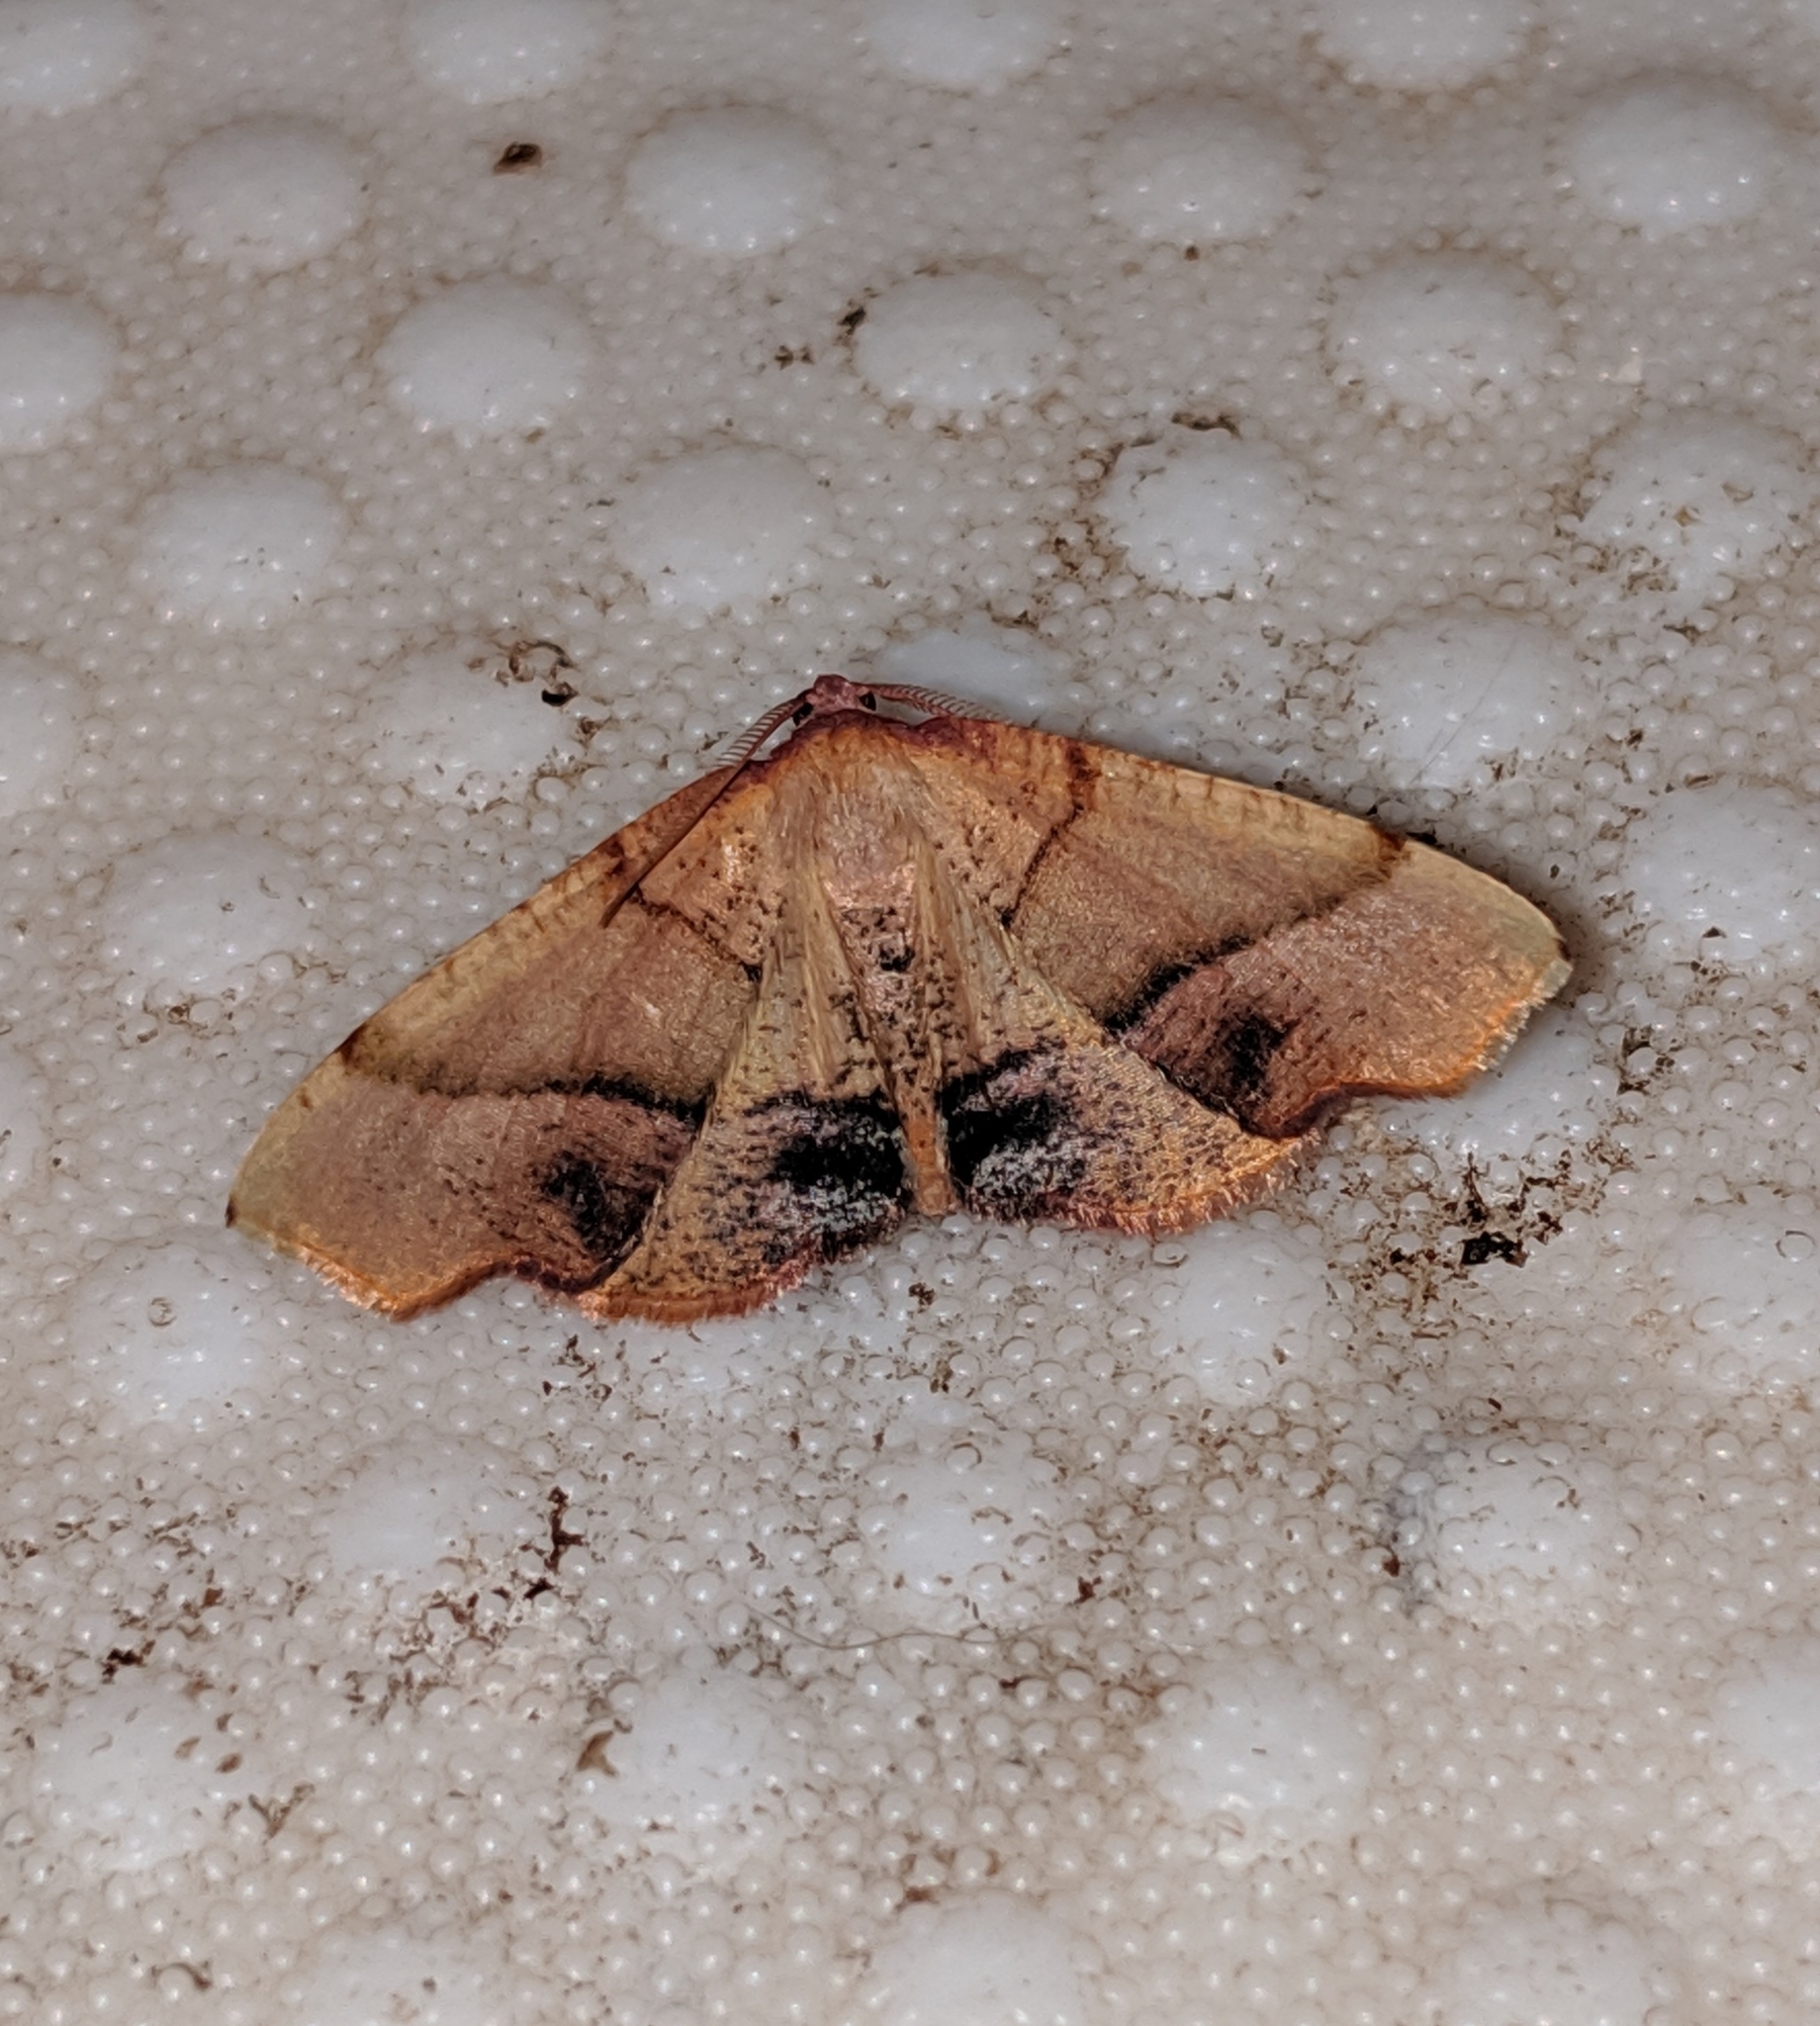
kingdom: Animalia
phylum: Arthropoda
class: Insecta
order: Lepidoptera
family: Geometridae
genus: Plagodis
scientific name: Plagodis phlogosaria
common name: Straight-lined plagodis
